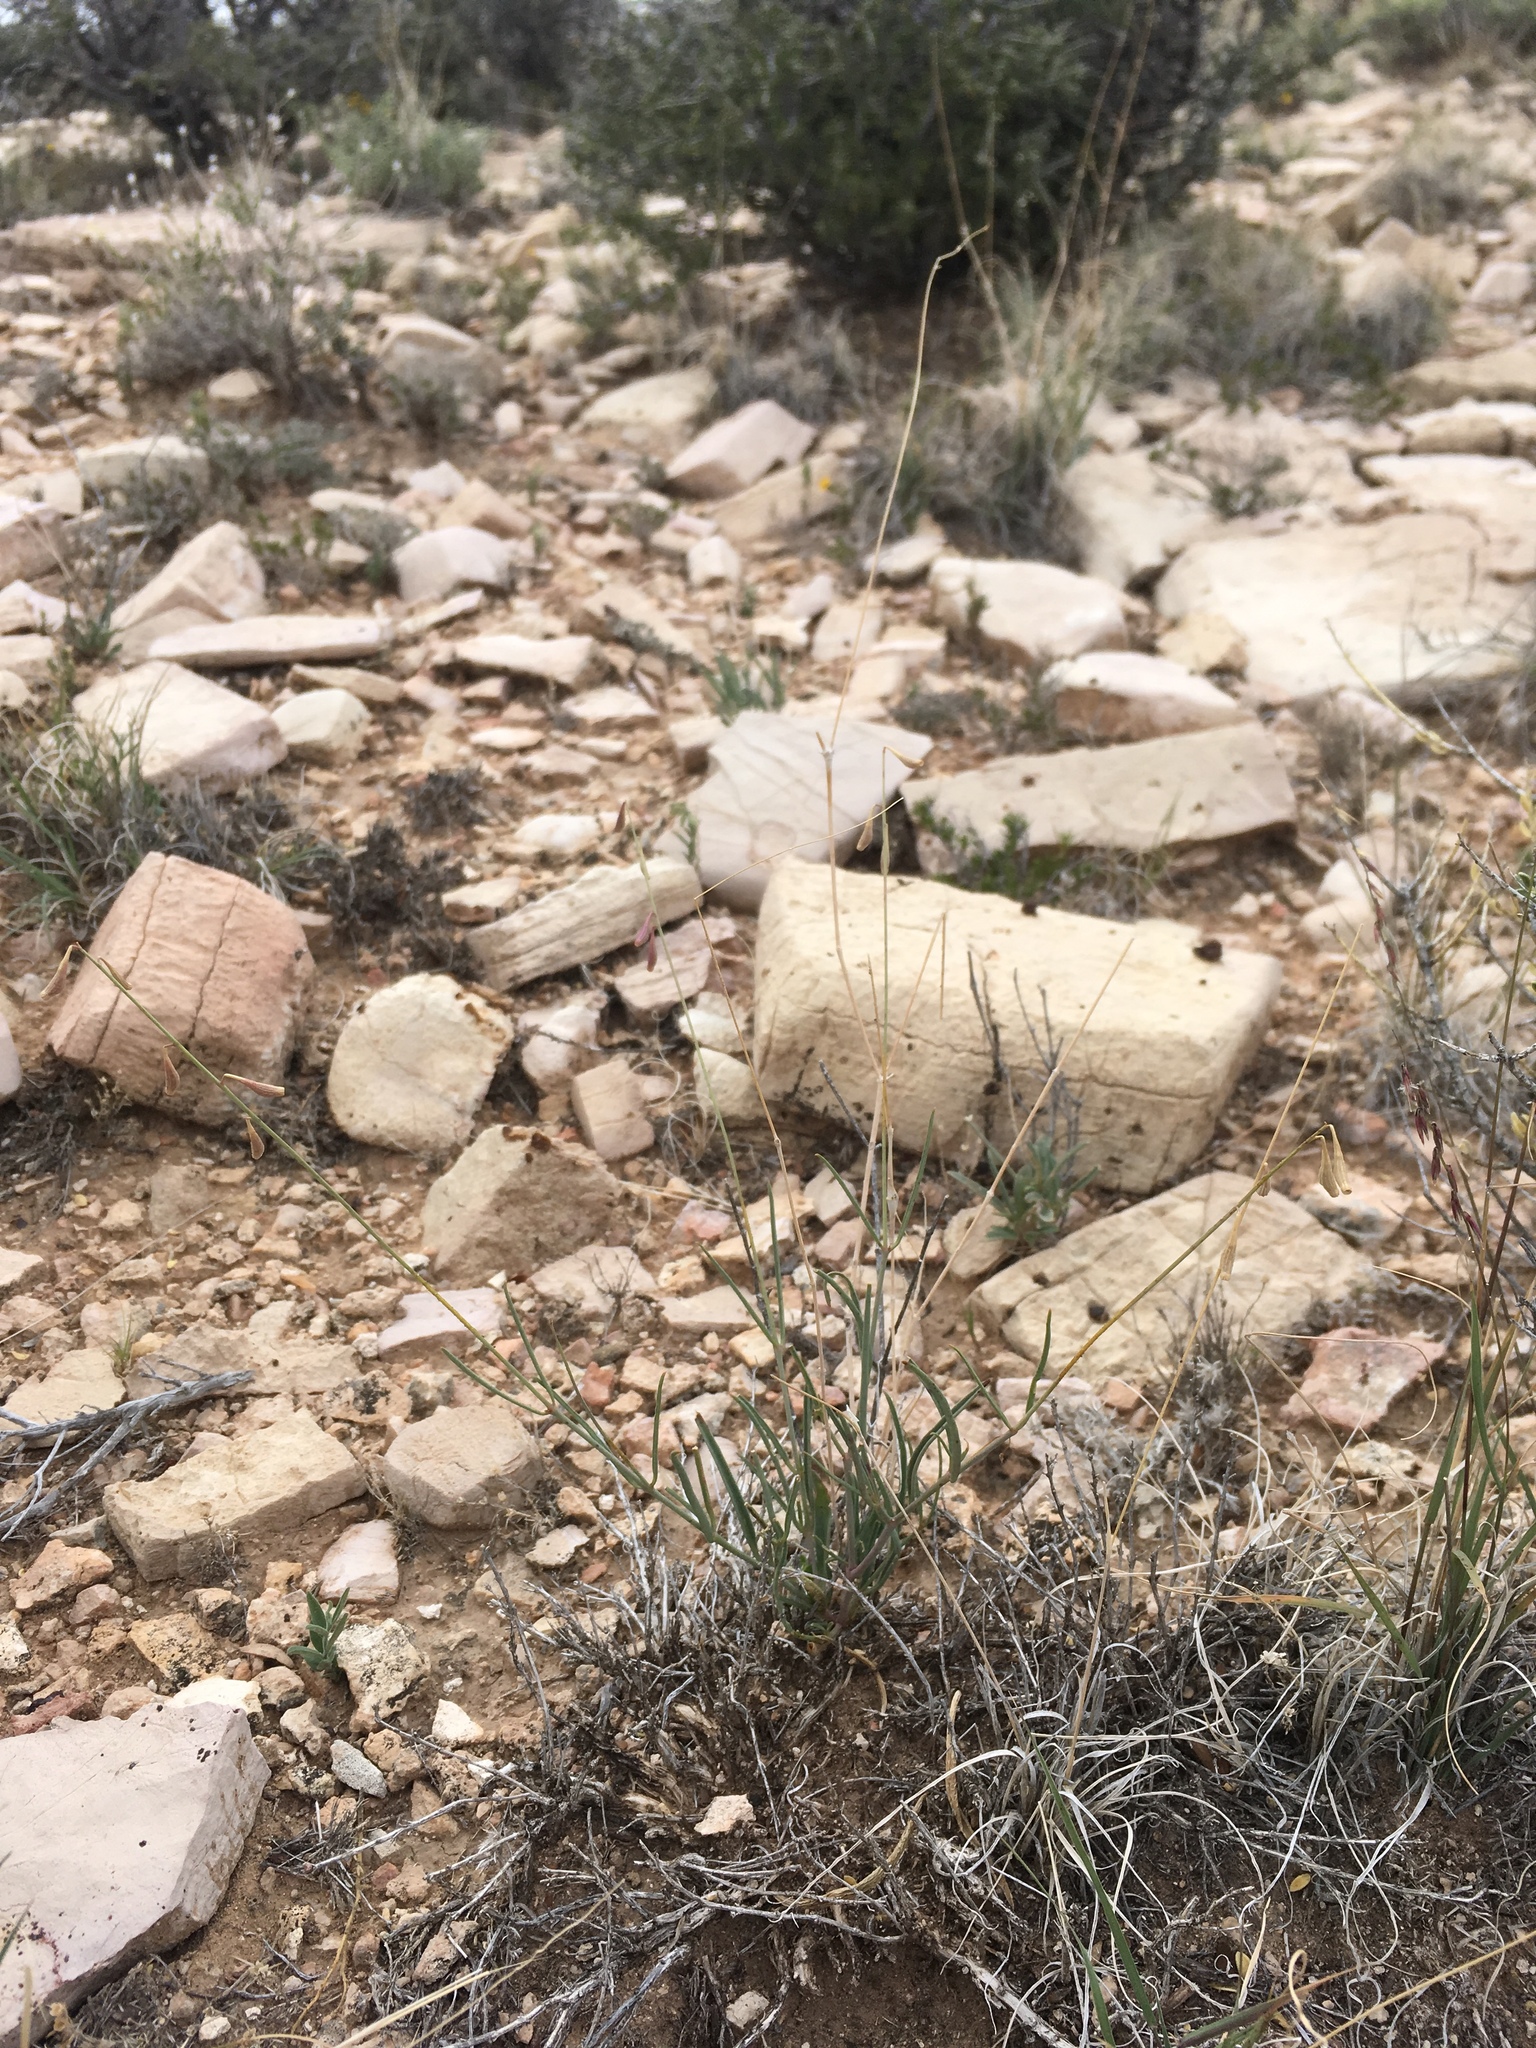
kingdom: Plantae
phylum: Tracheophyta
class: Magnoliopsida
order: Caryophyllales
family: Nyctaginaceae
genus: Cyphomeris
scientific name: Cyphomeris gypsophiloides
